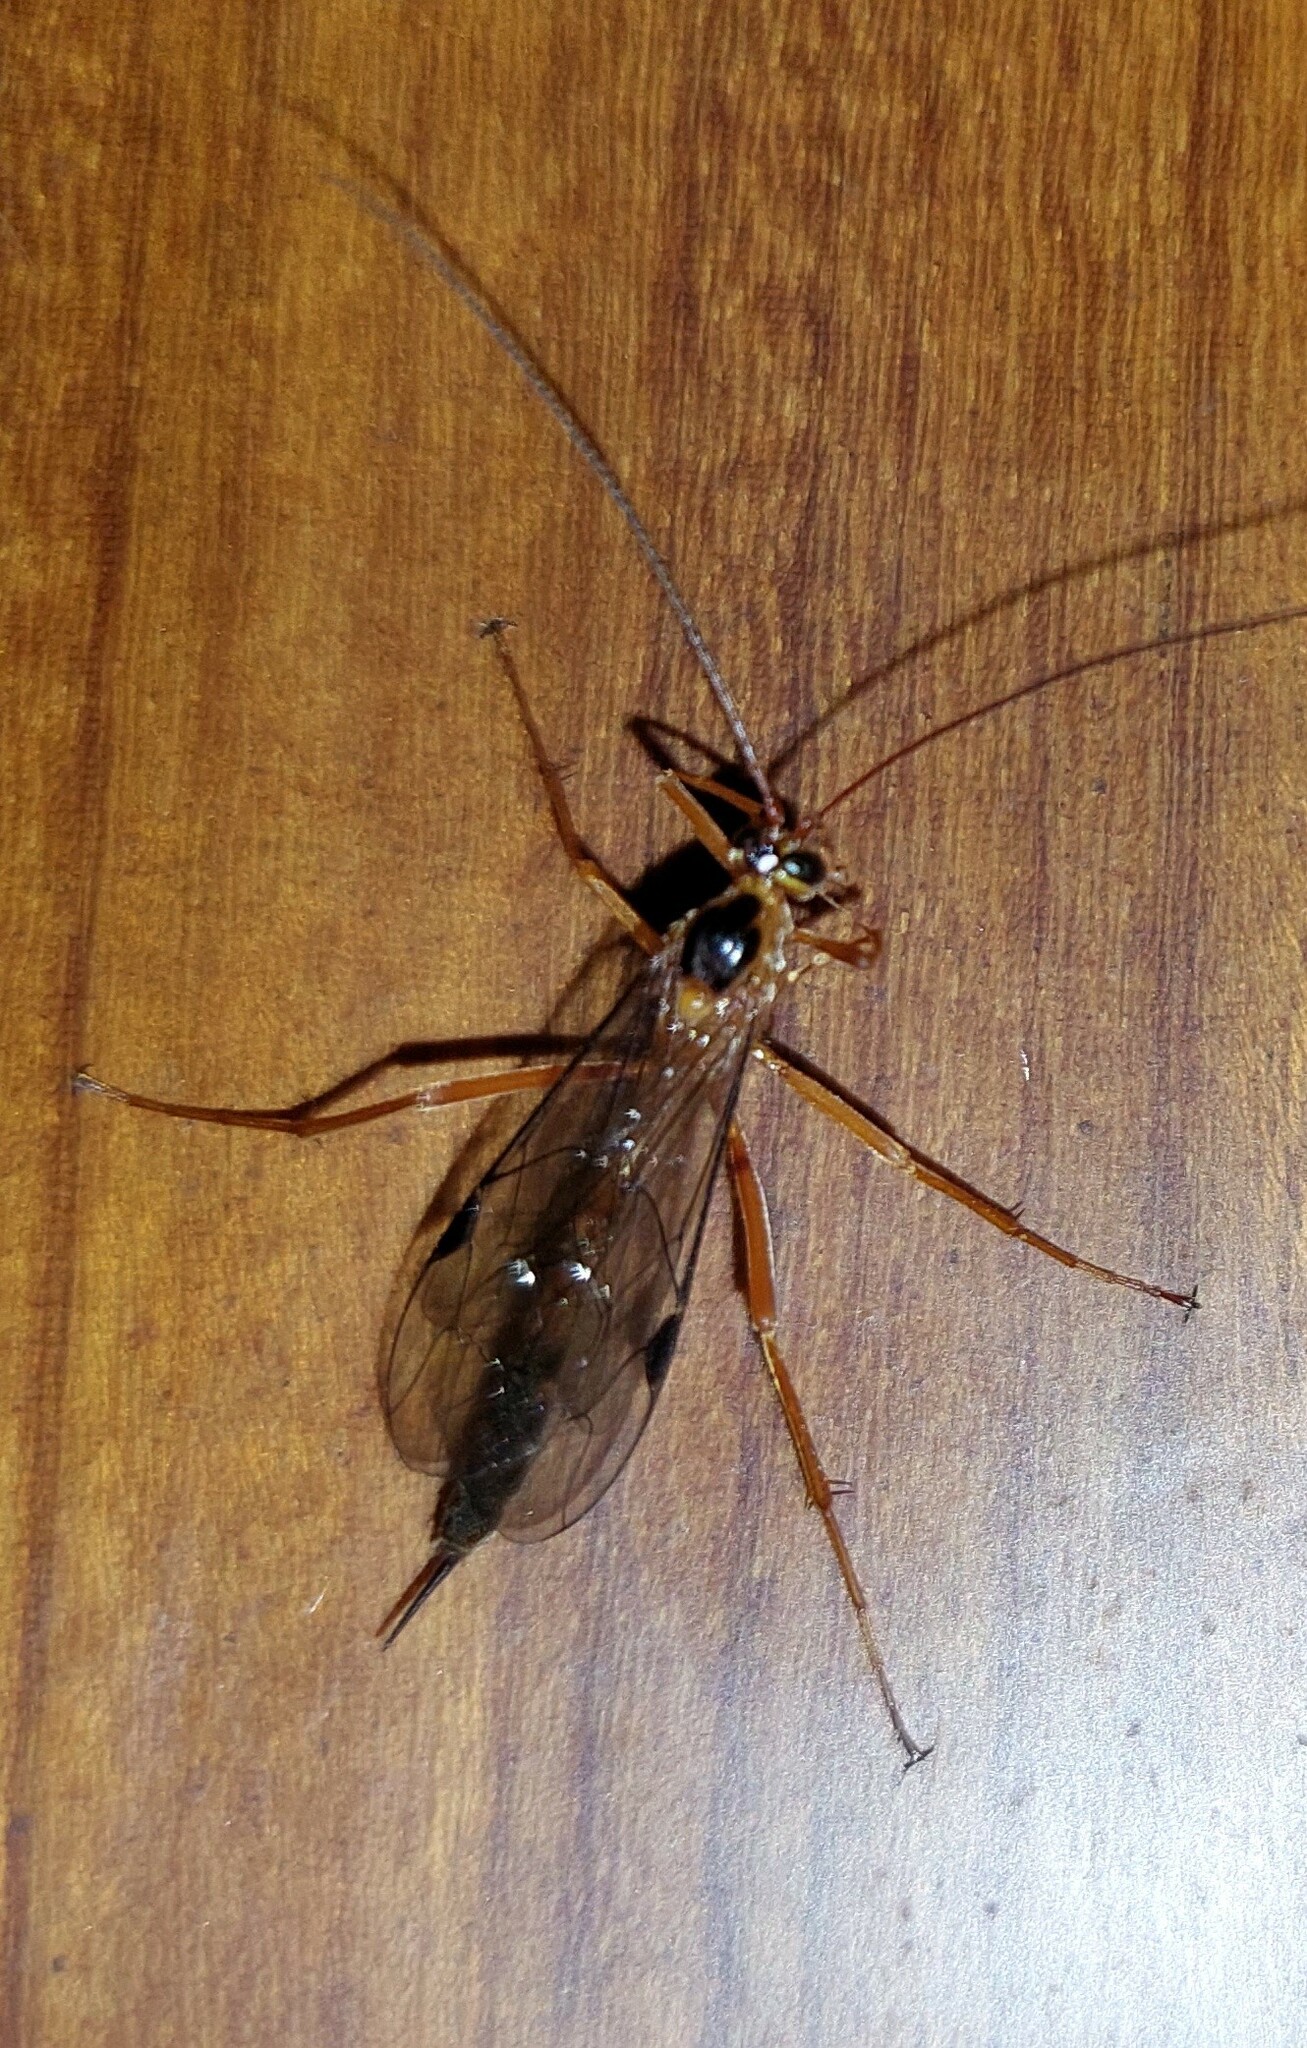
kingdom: Animalia
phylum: Arthropoda
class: Insecta
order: Hymenoptera
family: Ichneumonidae
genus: Netelia
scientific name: Netelia ephippiata
